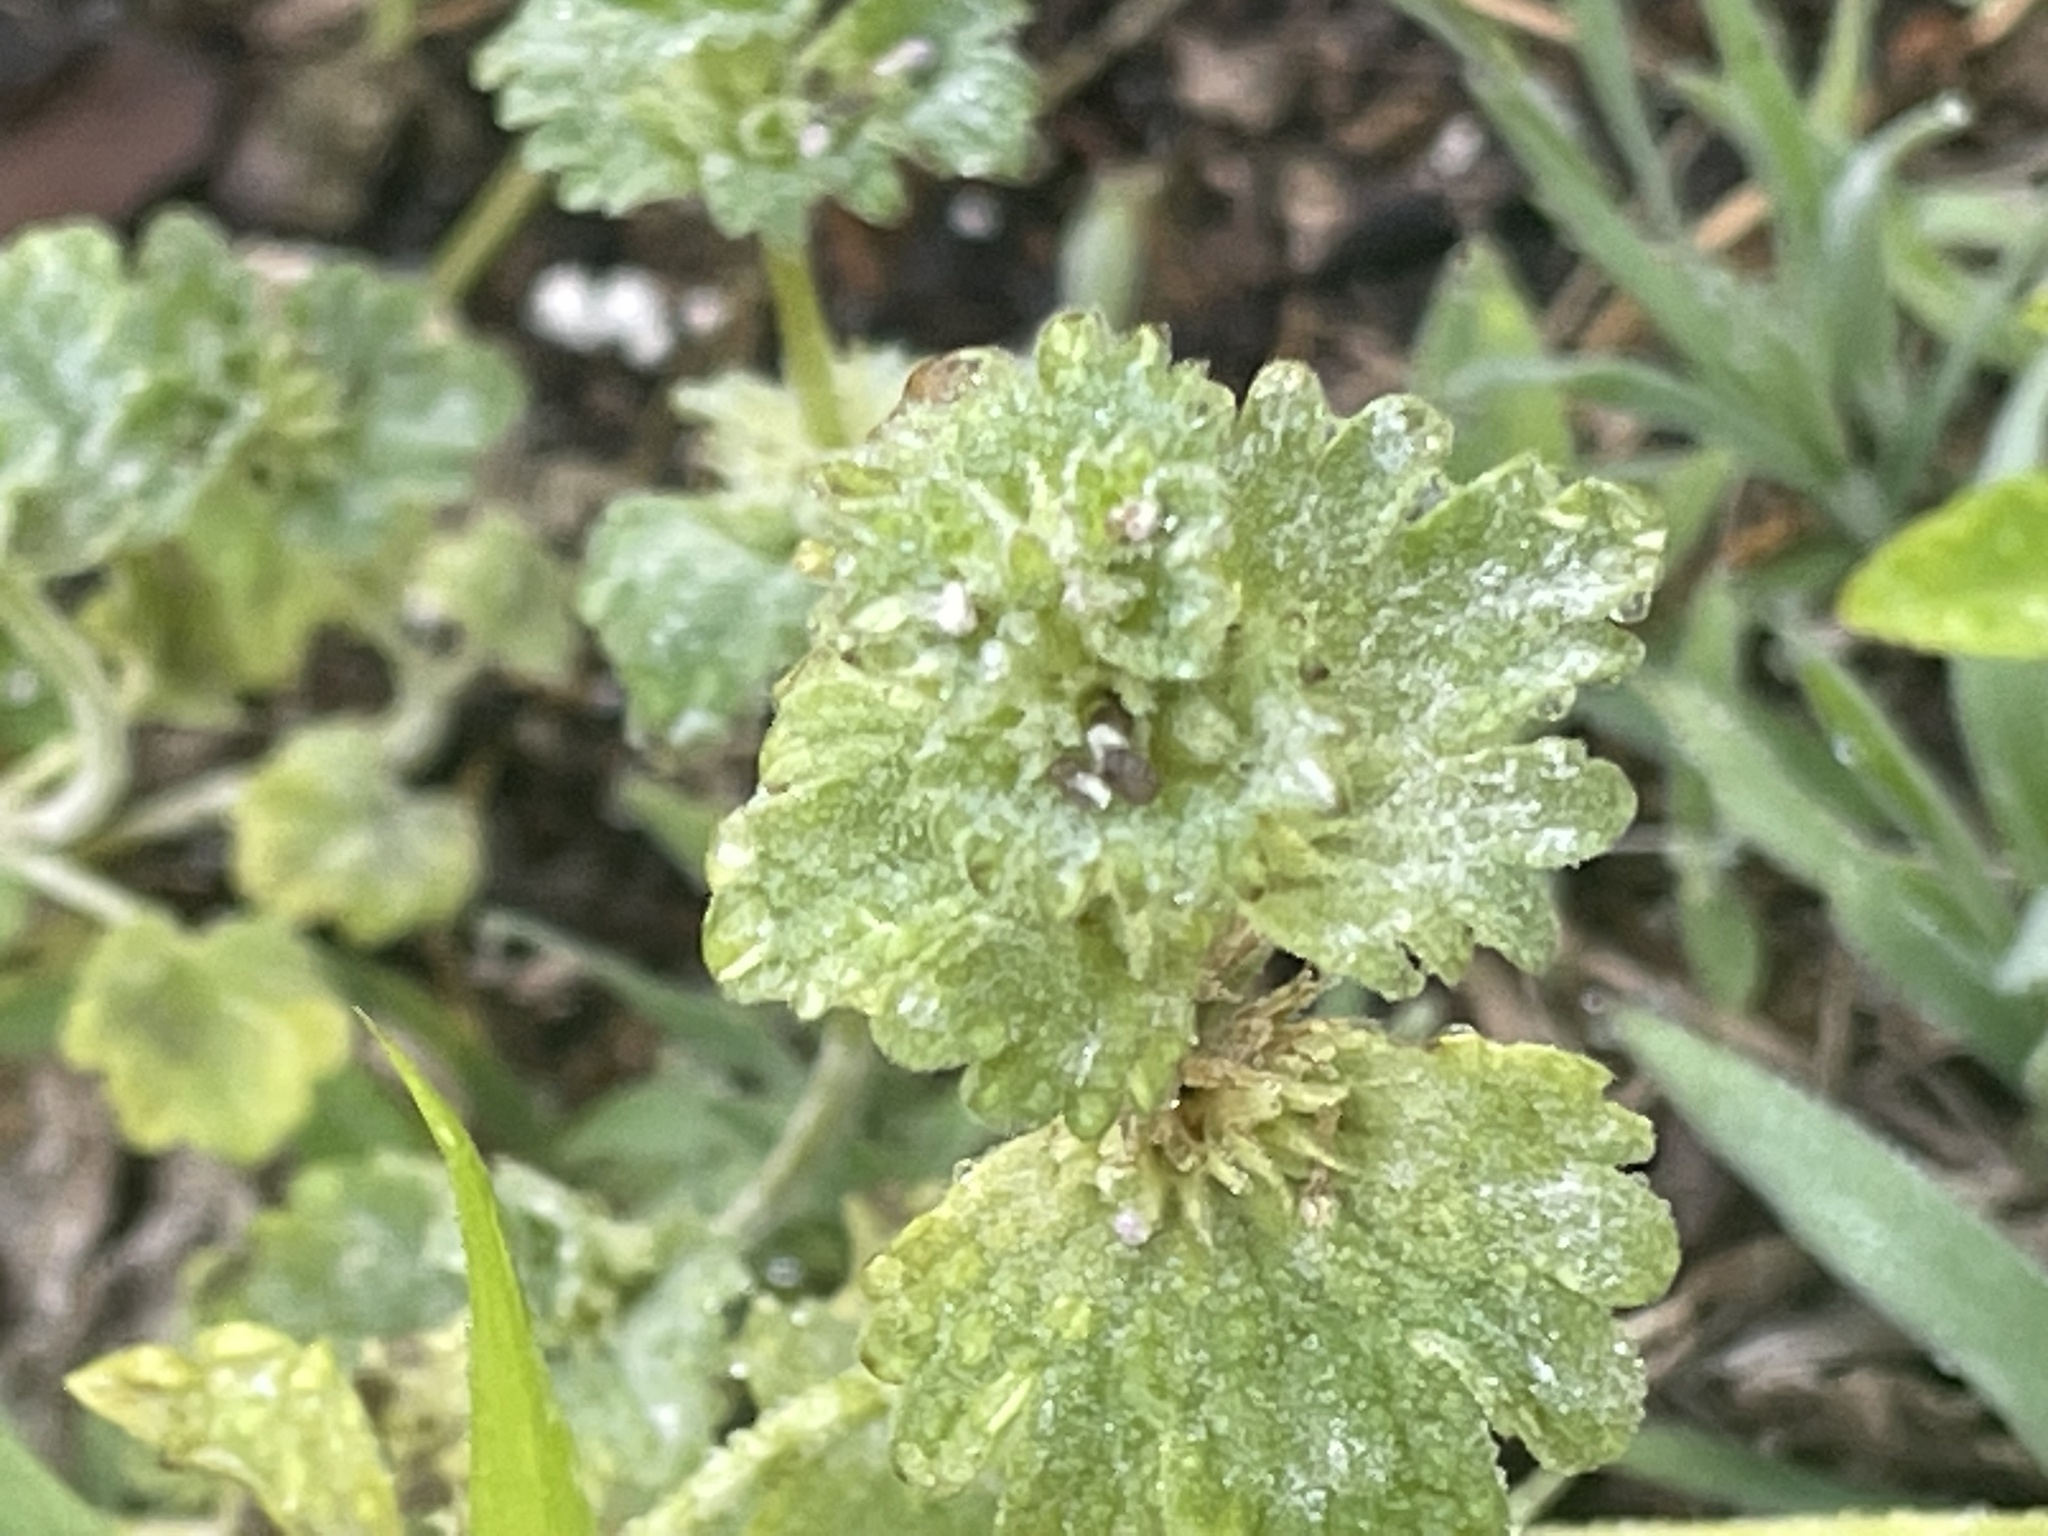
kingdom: Plantae
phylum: Tracheophyta
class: Magnoliopsida
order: Lamiales
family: Lamiaceae
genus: Lamium
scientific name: Lamium amplexicaule
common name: Henbit dead-nettle
